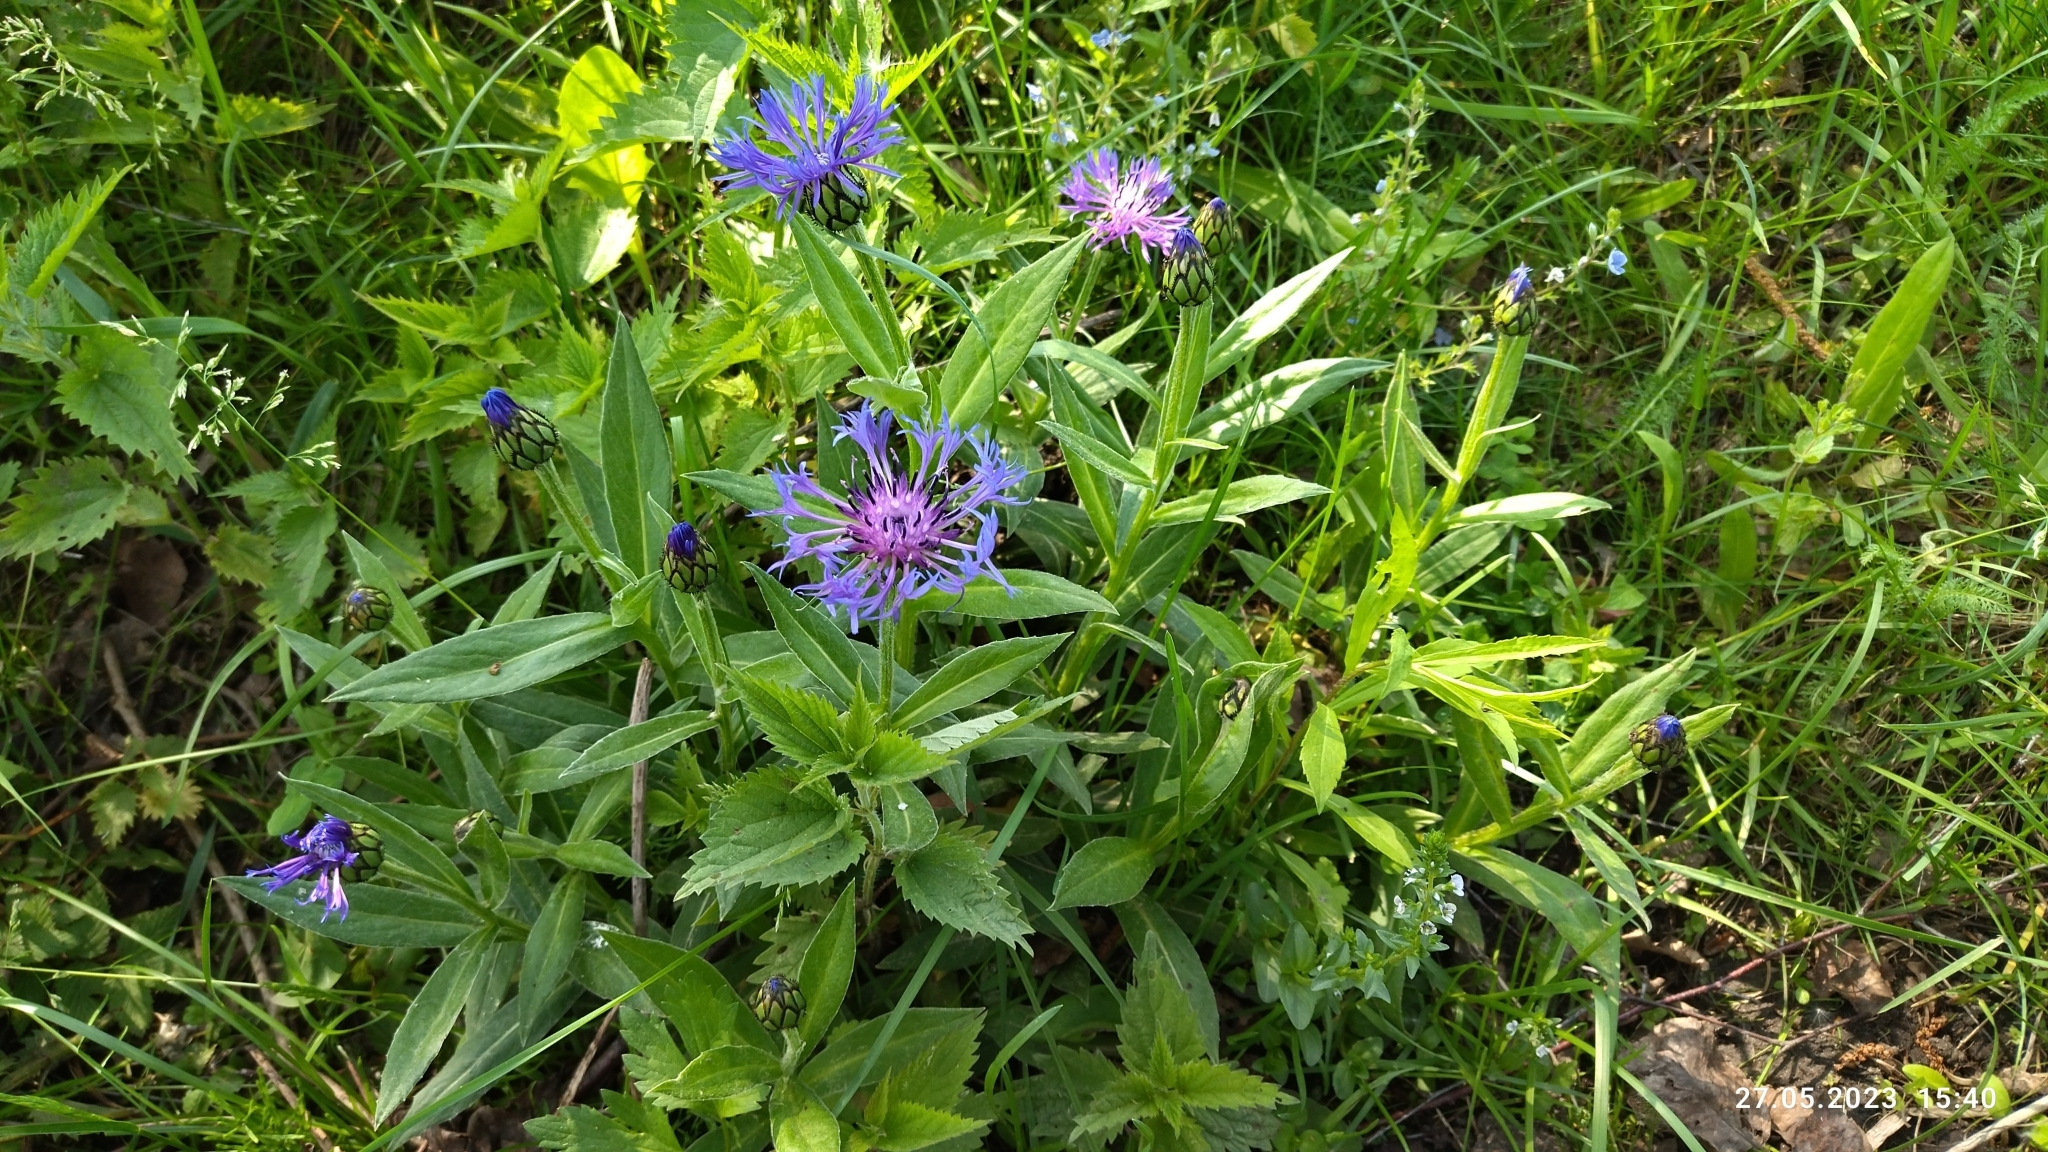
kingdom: Plantae
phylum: Tracheophyta
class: Magnoliopsida
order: Asterales
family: Asteraceae
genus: Centaurea
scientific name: Centaurea montana
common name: Perennial cornflower
